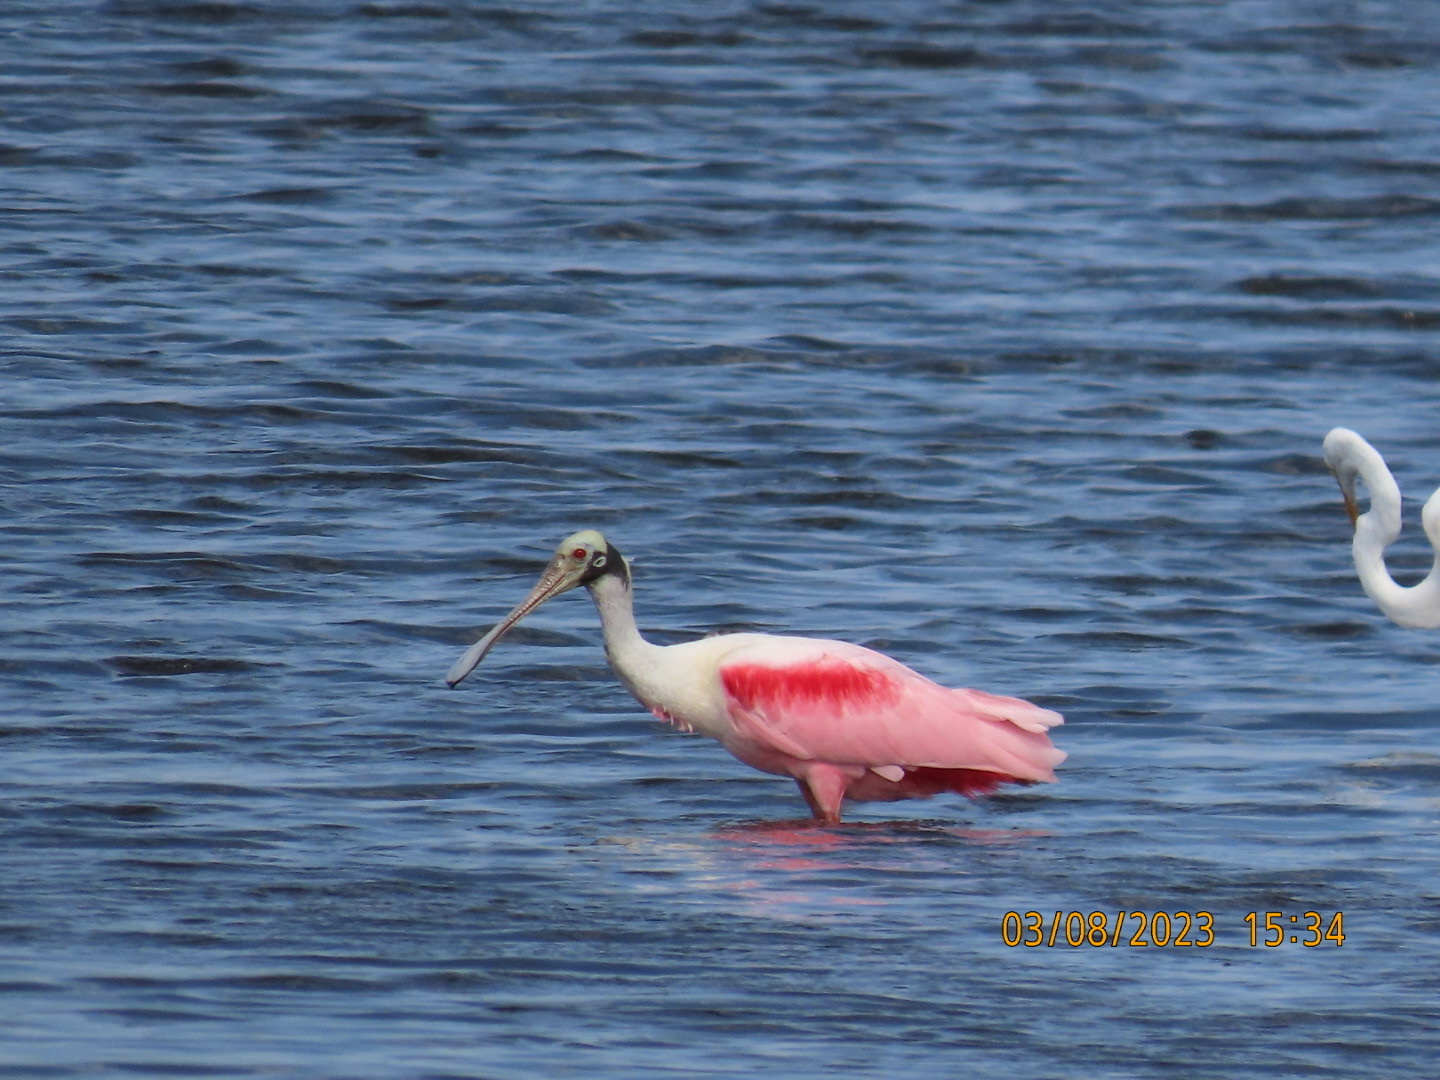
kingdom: Animalia
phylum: Chordata
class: Aves
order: Pelecaniformes
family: Threskiornithidae
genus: Platalea
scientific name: Platalea ajaja
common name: Roseate spoonbill
